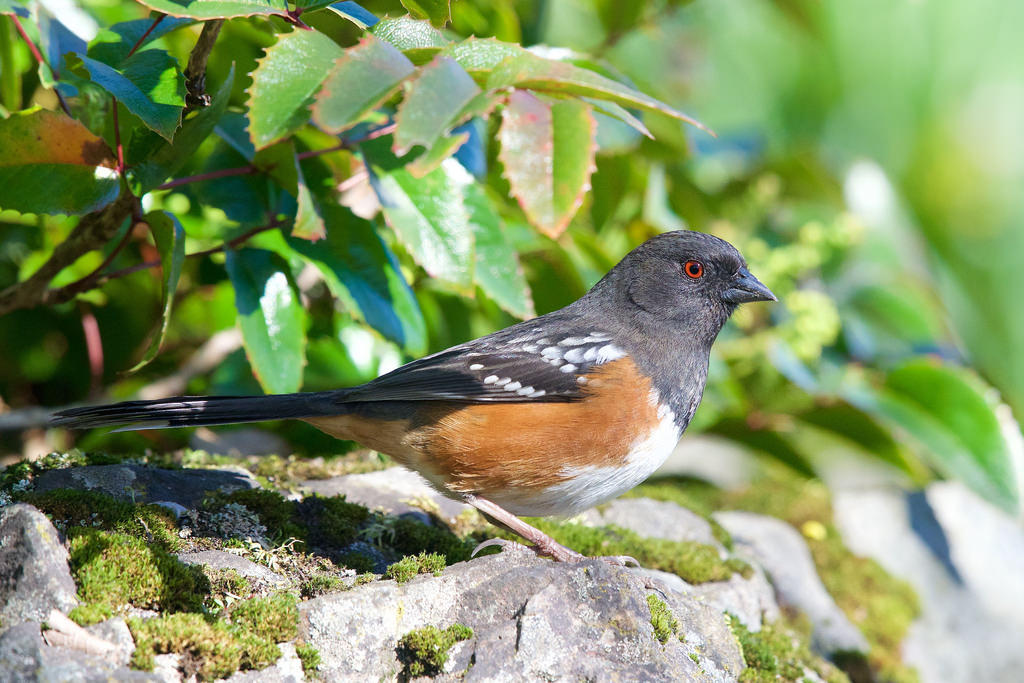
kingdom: Animalia
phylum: Chordata
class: Aves
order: Passeriformes
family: Passerellidae
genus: Pipilo
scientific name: Pipilo maculatus
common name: Spotted towhee
